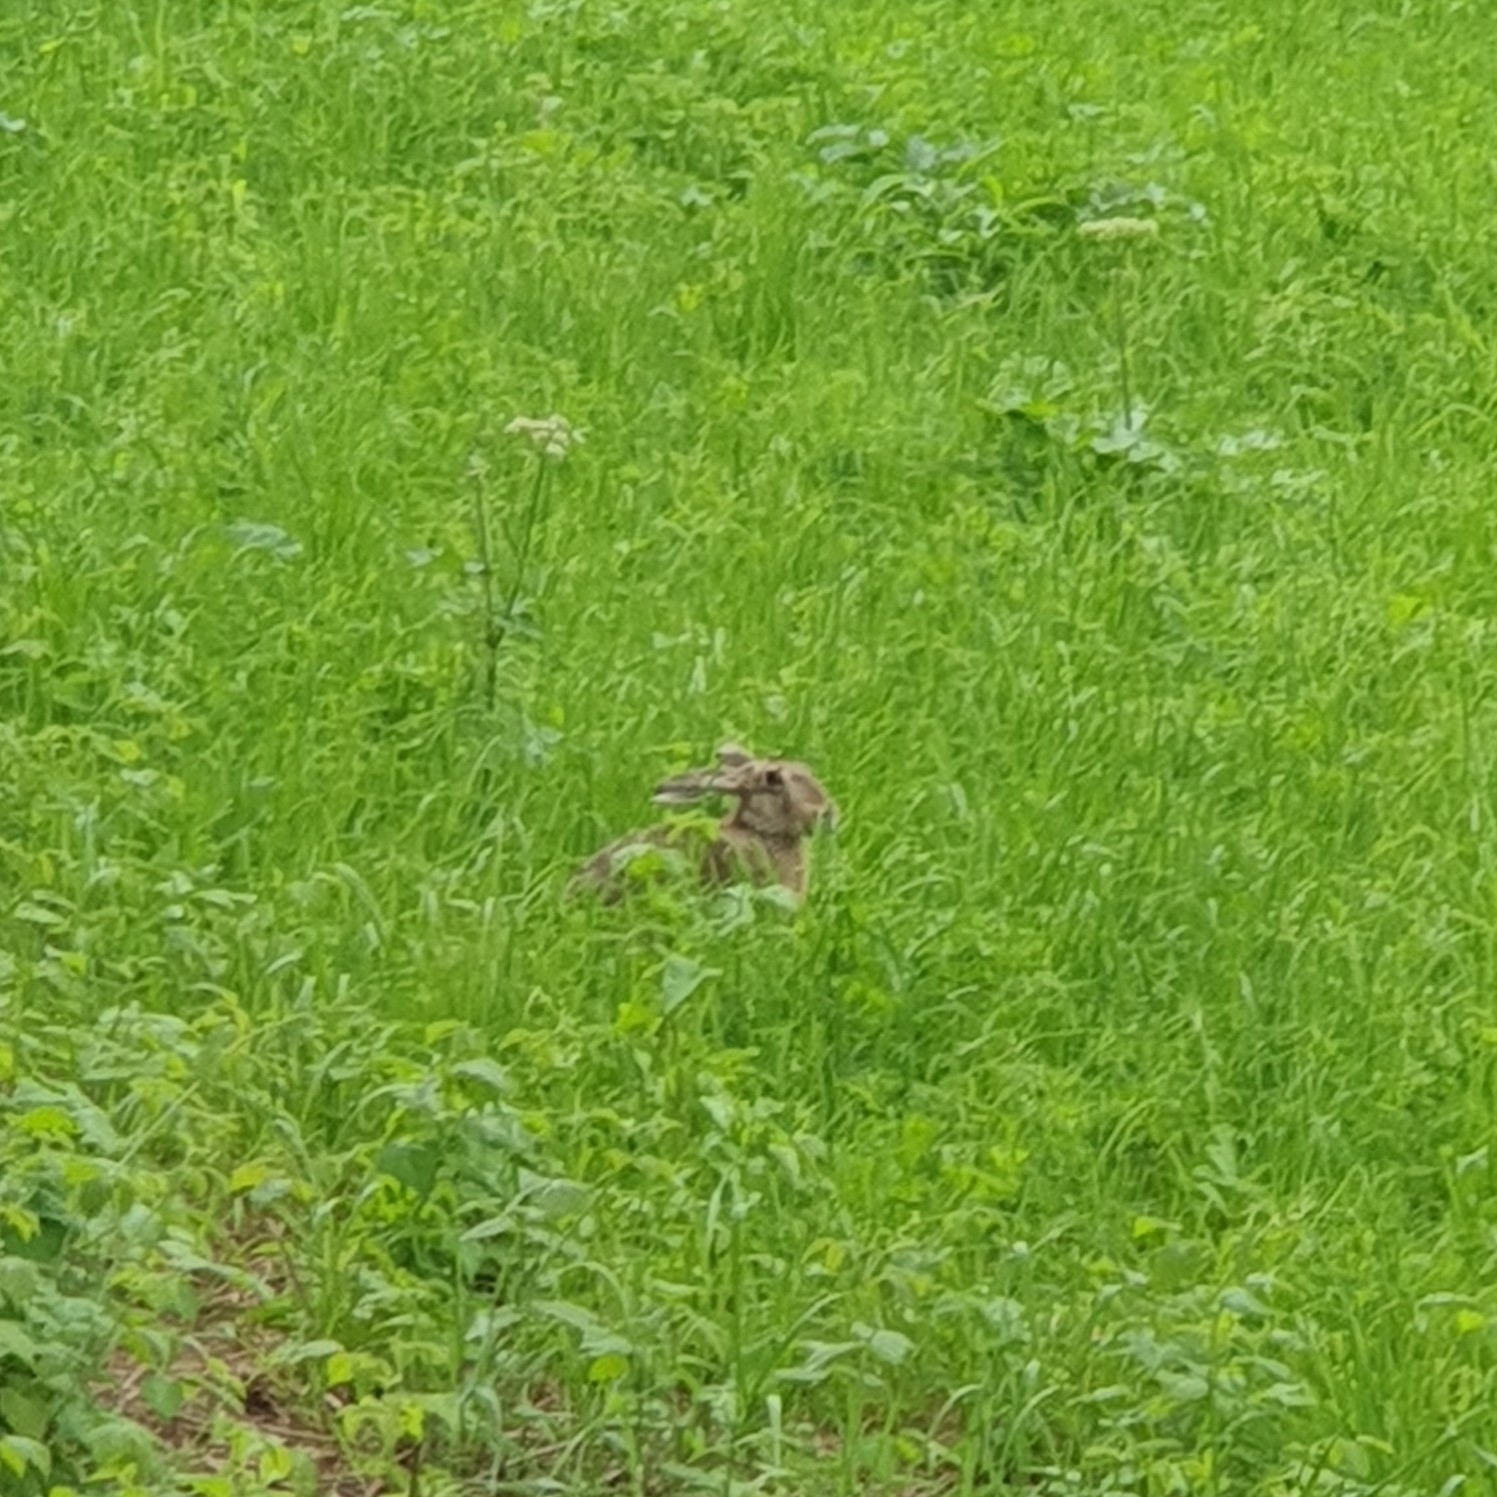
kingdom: Animalia
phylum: Chordata
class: Mammalia
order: Lagomorpha
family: Leporidae
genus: Lepus
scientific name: Lepus europaeus
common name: European hare
